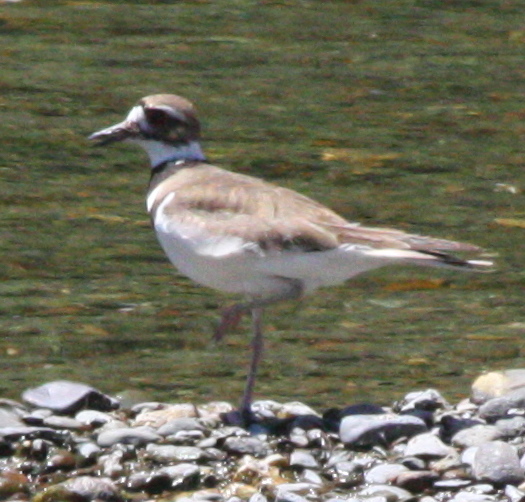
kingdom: Animalia
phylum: Chordata
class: Aves
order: Charadriiformes
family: Charadriidae
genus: Charadrius
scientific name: Charadrius vociferus
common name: Killdeer
